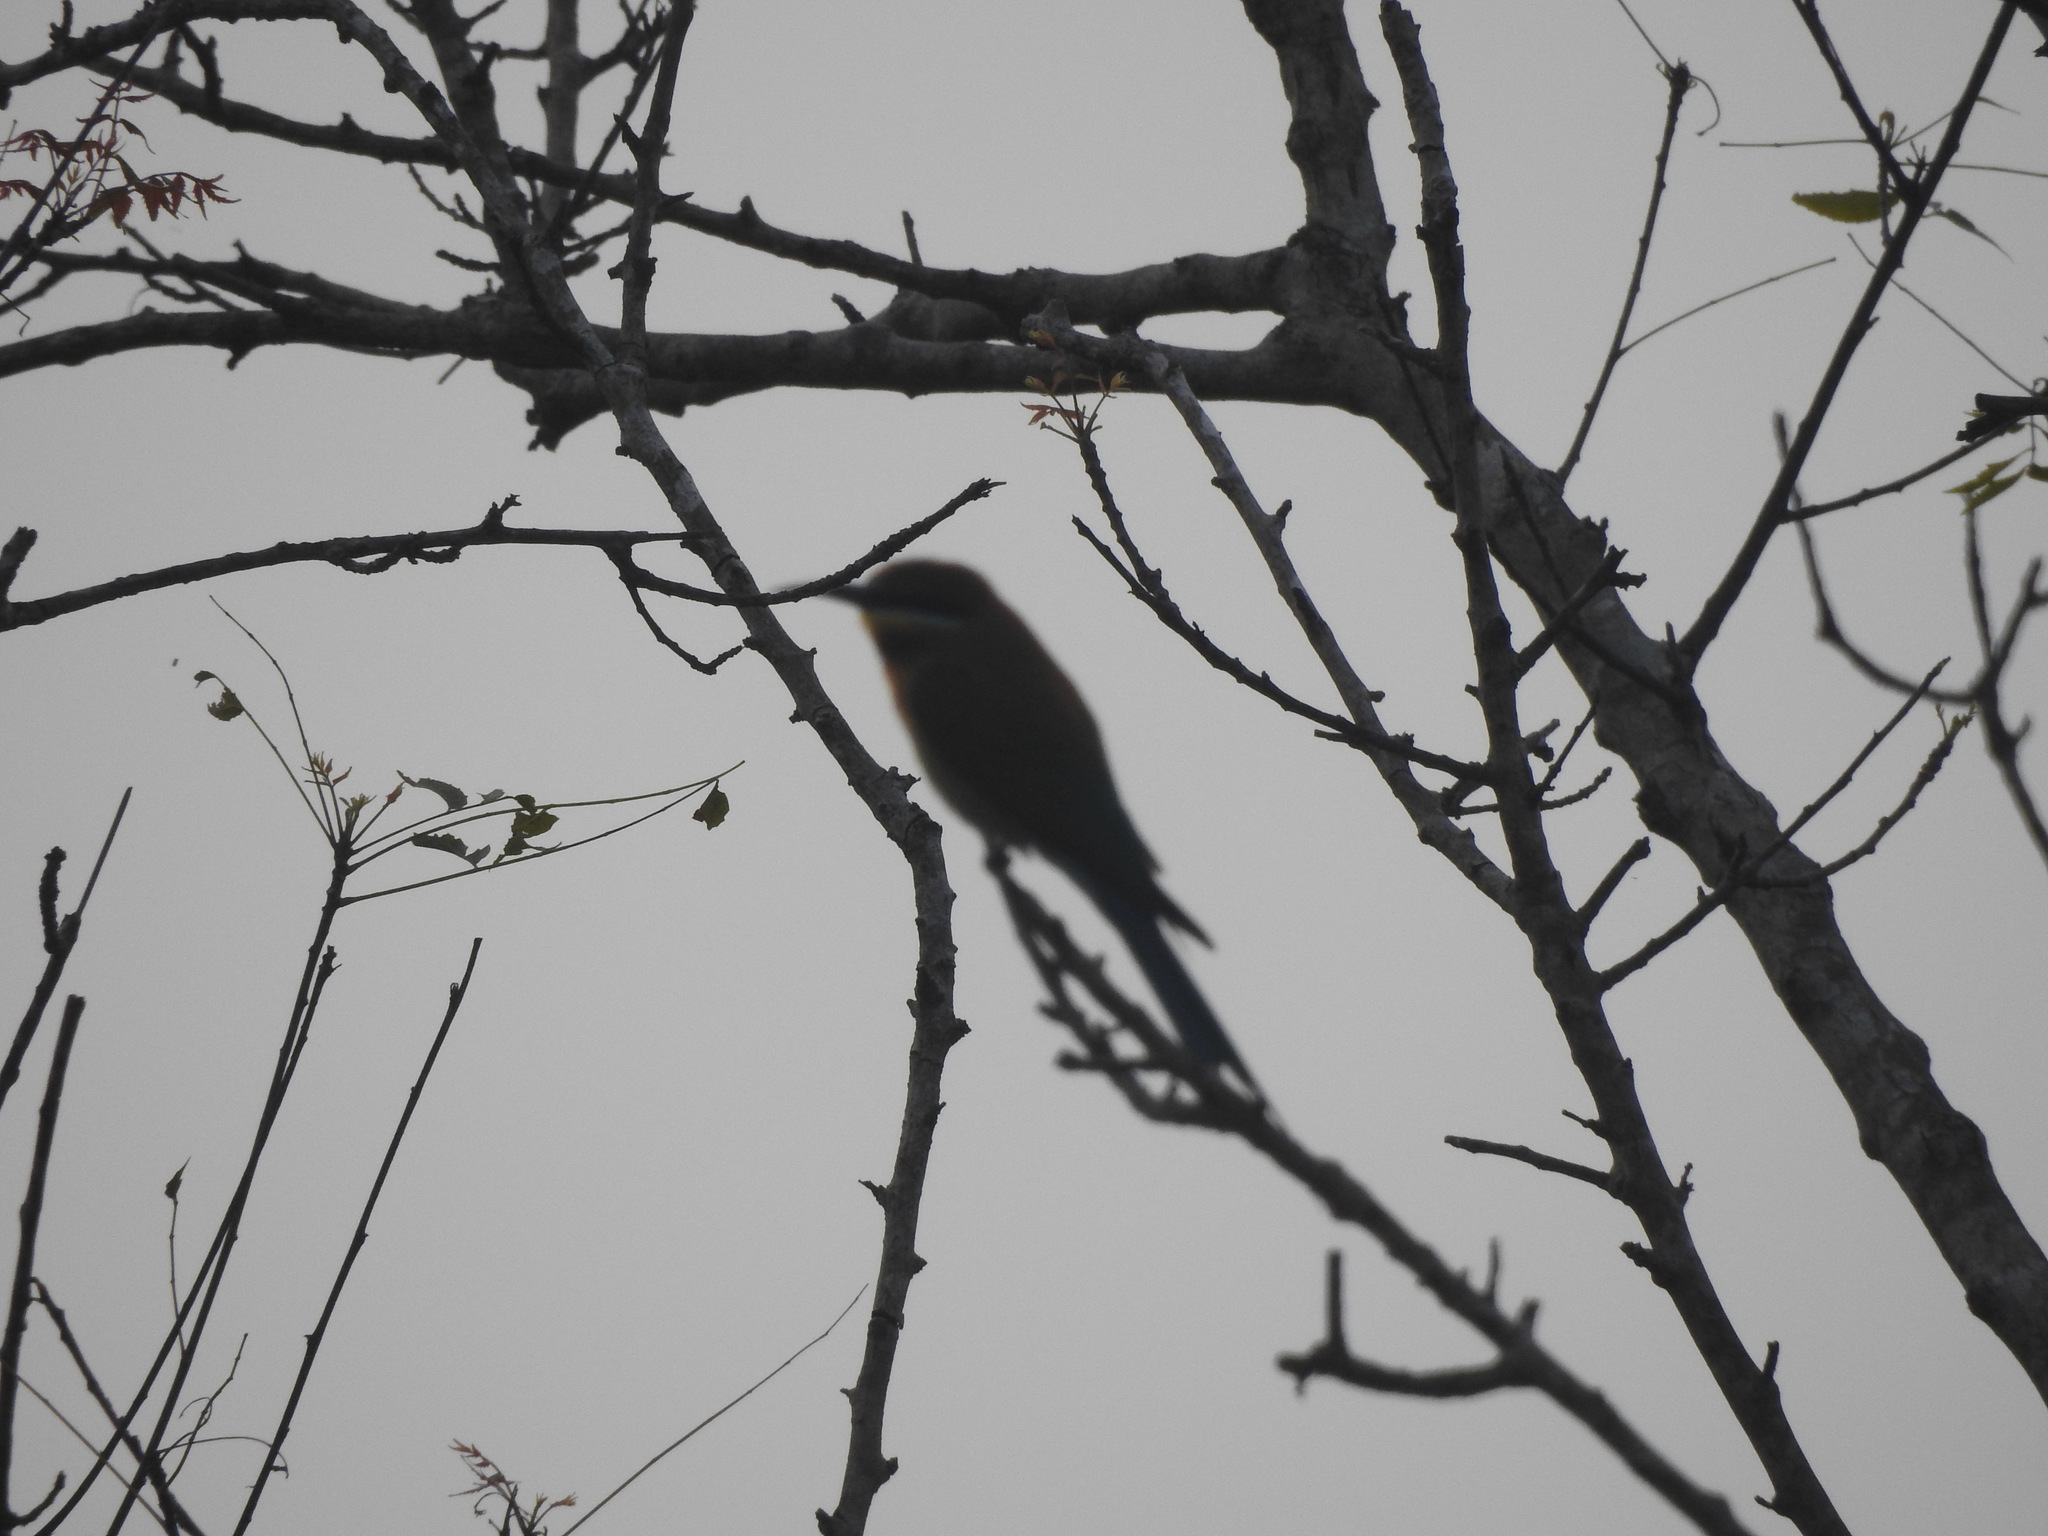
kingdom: Animalia
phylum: Chordata
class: Aves
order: Coraciiformes
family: Meropidae
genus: Merops
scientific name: Merops philippinus
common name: Blue-tailed bee-eater
